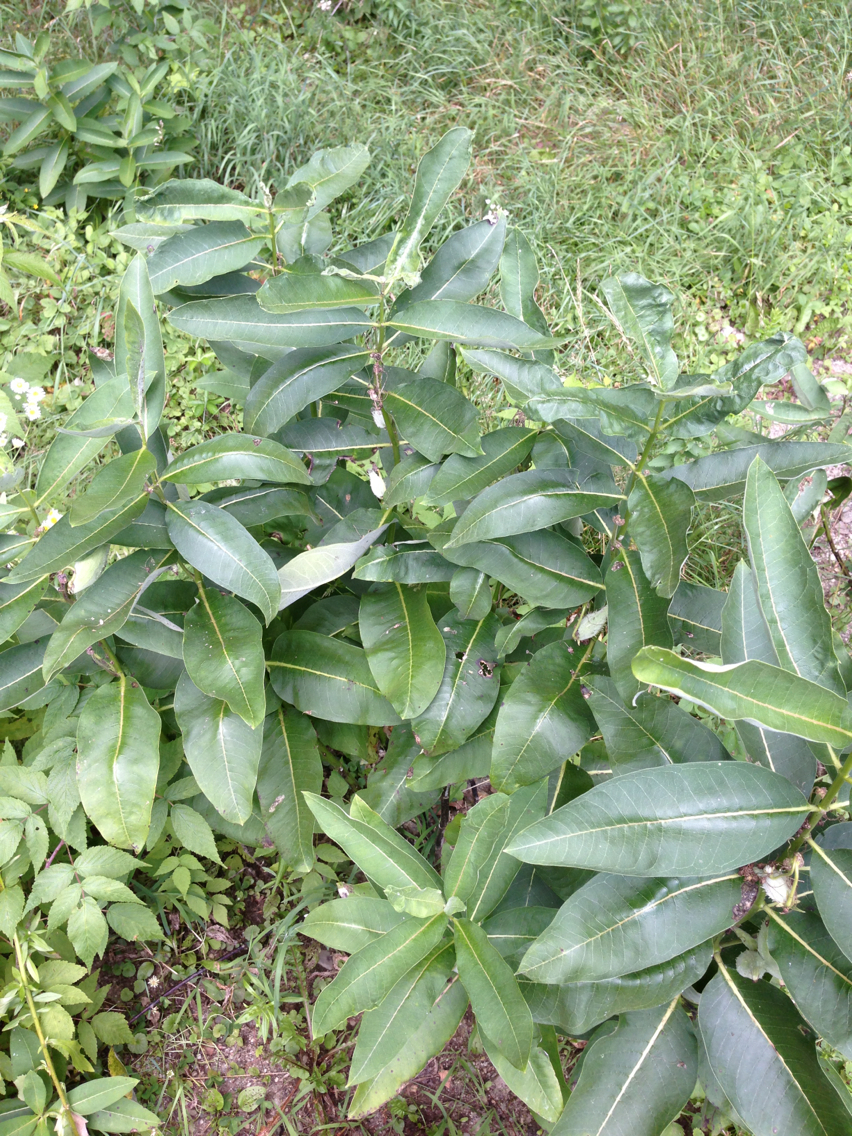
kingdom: Plantae
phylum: Tracheophyta
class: Magnoliopsida
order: Gentianales
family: Apocynaceae
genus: Asclepias
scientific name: Asclepias syriaca
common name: Common milkweed
